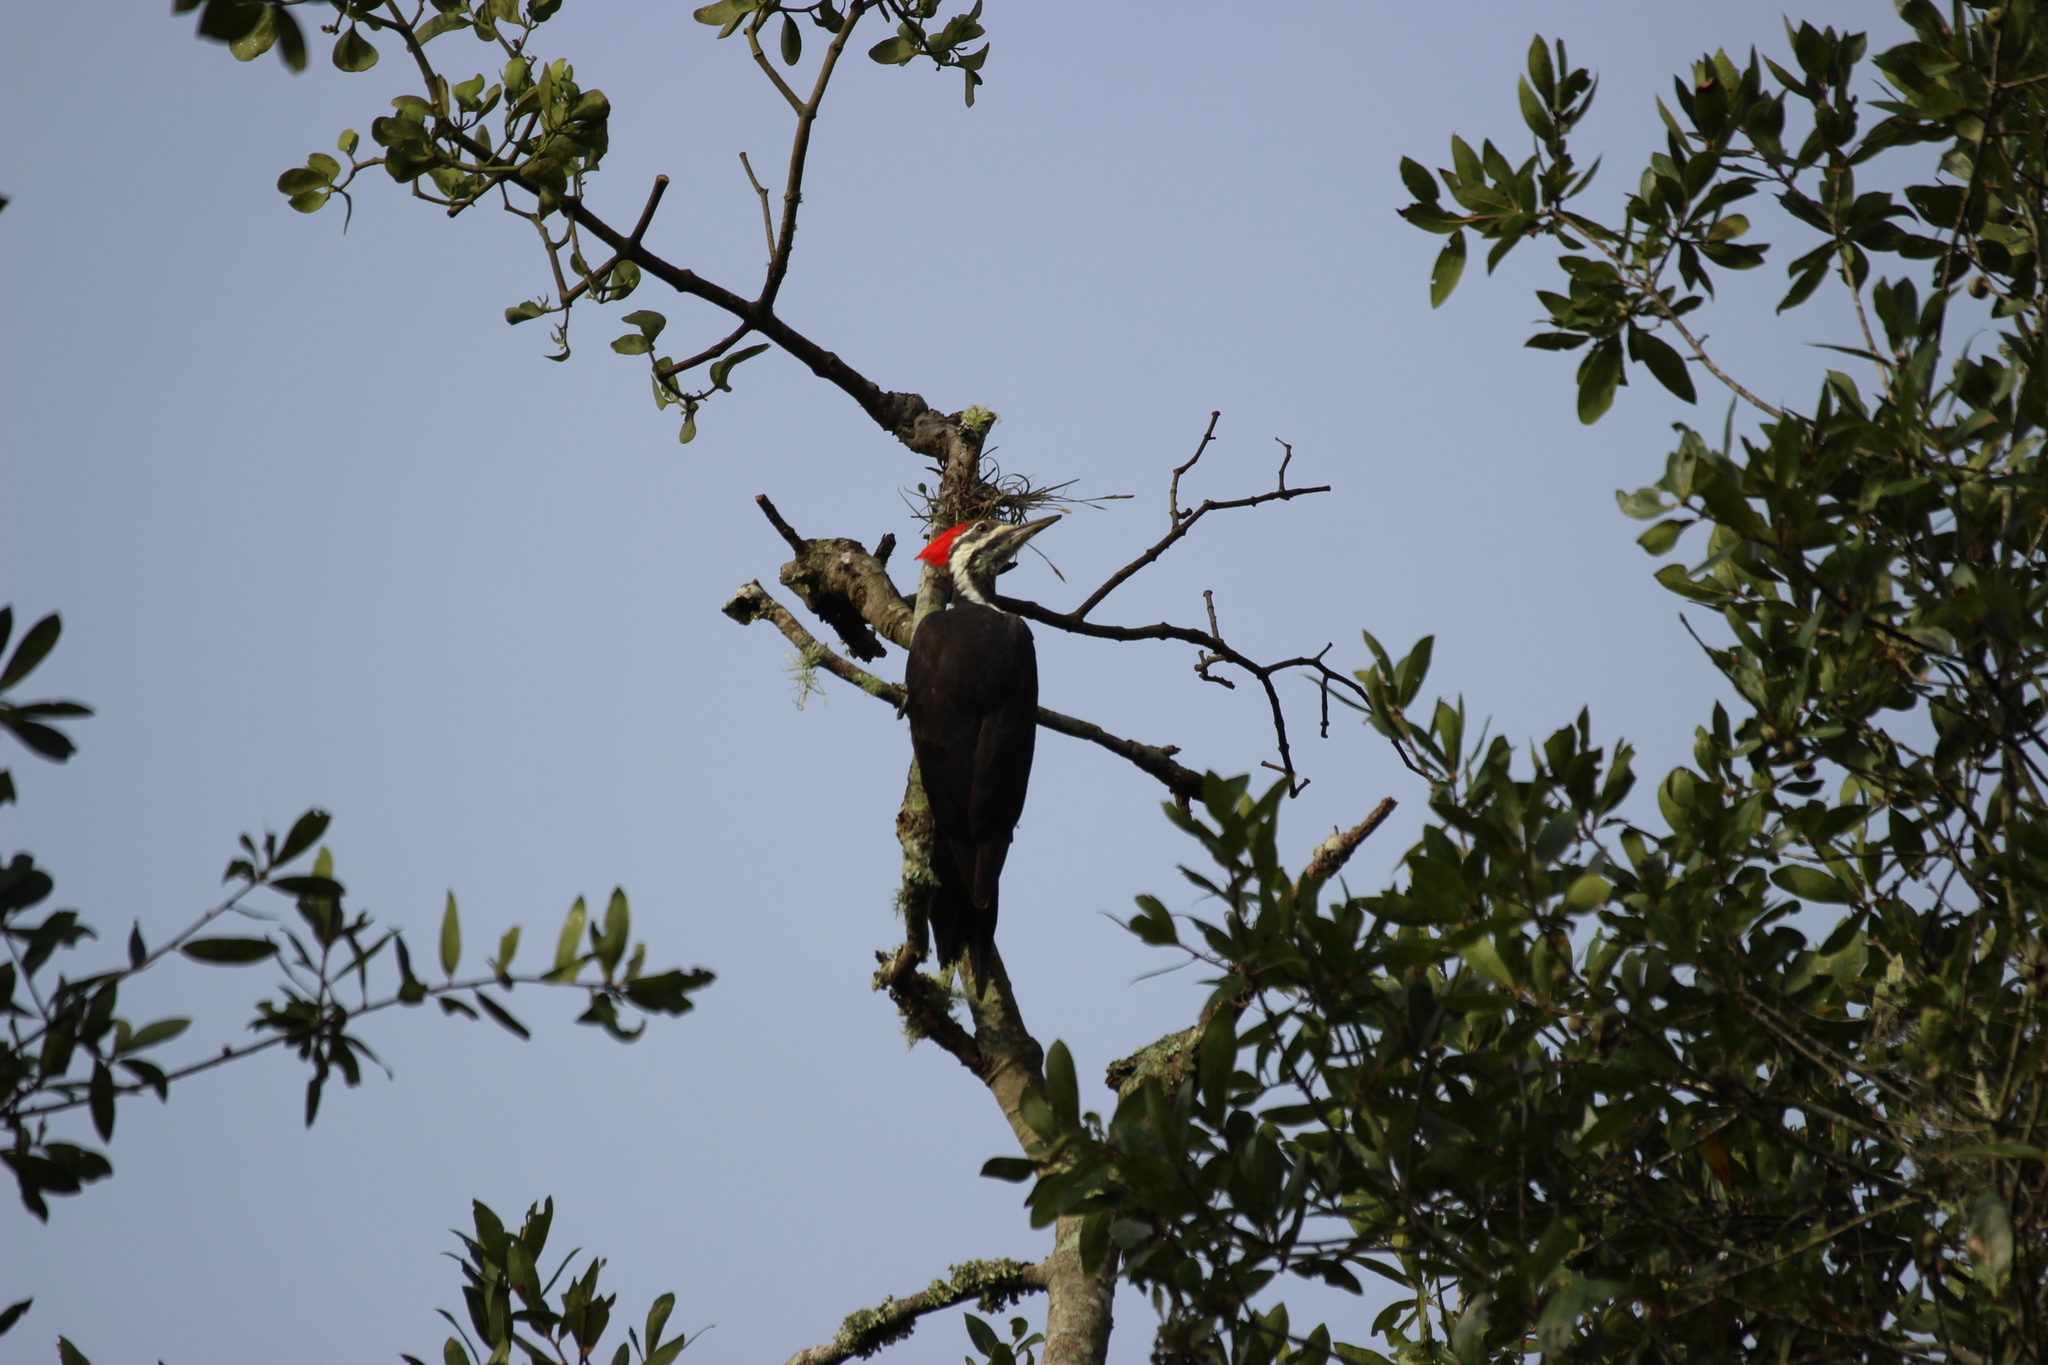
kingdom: Animalia
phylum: Chordata
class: Aves
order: Piciformes
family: Picidae
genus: Dryocopus
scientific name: Dryocopus pileatus
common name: Pileated woodpecker
